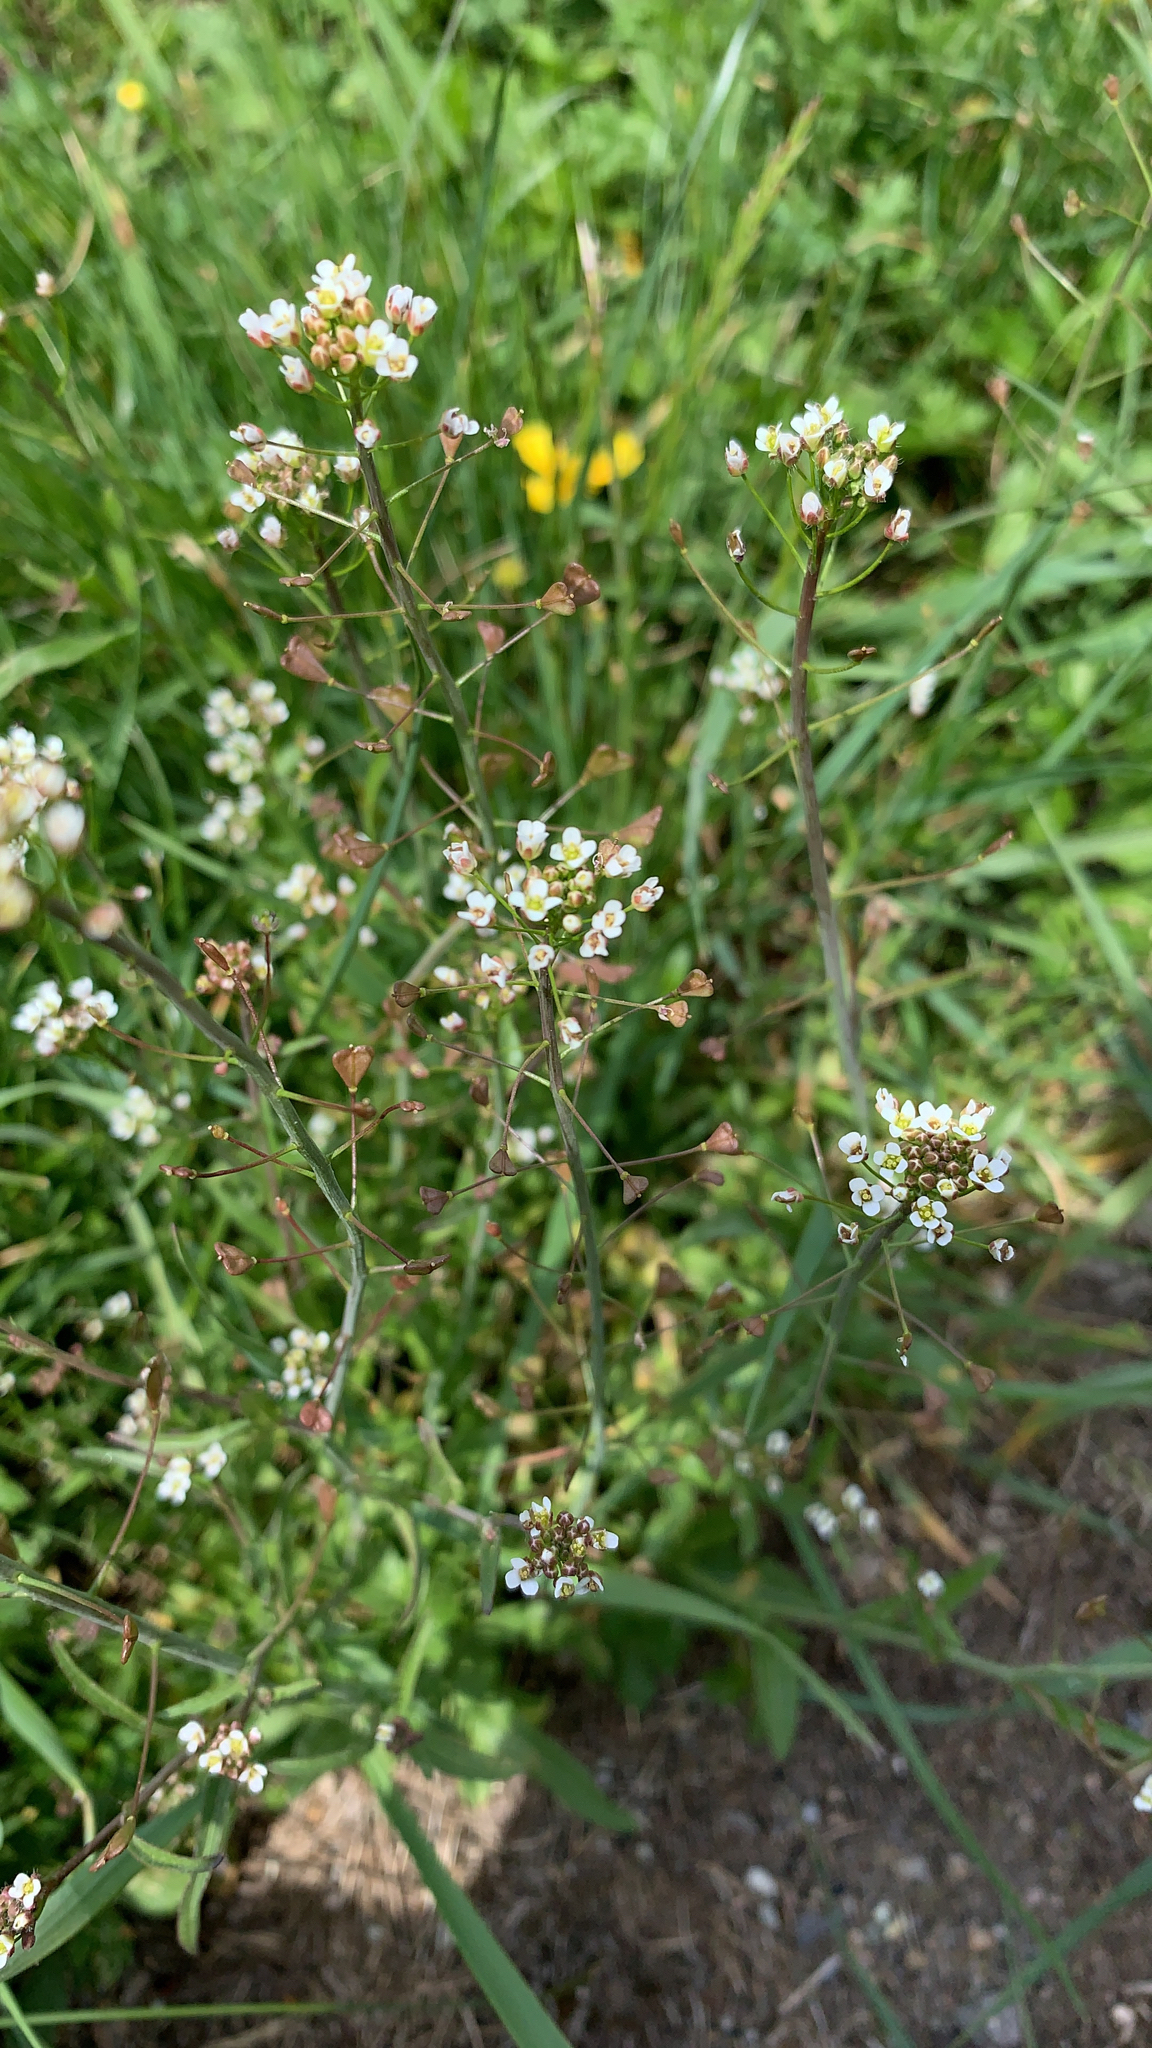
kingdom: Plantae
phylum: Tracheophyta
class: Magnoliopsida
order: Brassicales
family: Brassicaceae
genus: Capsella
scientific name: Capsella bursa-pastoris
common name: Shepherd's purse
